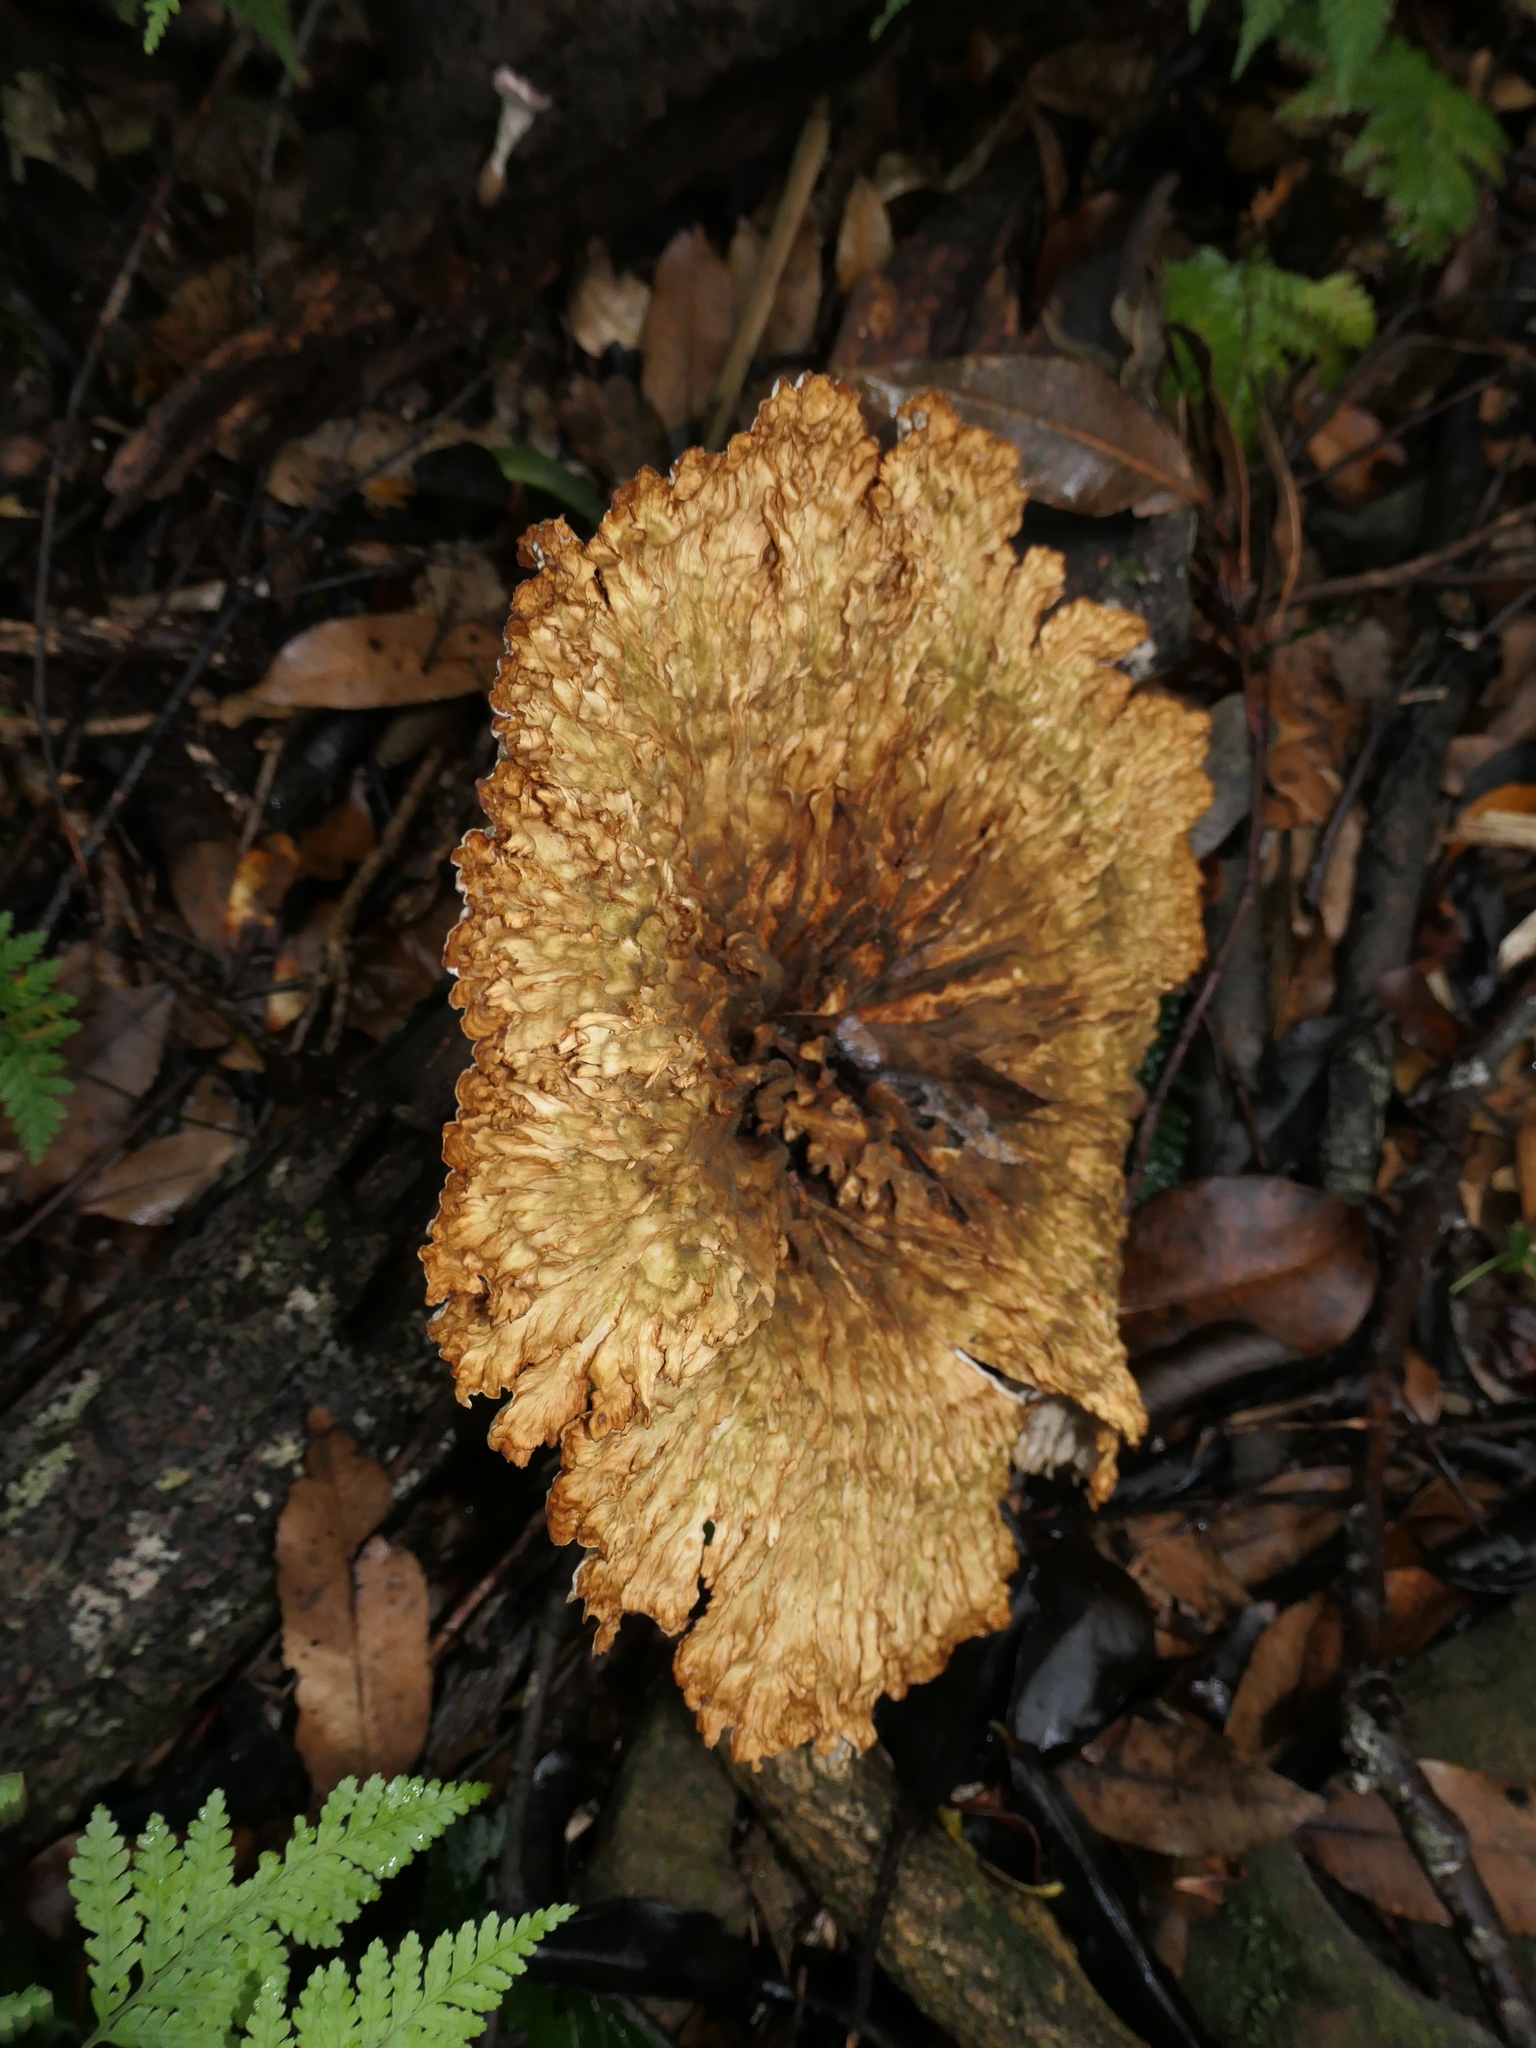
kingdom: Fungi
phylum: Basidiomycota
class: Agaricomycetes
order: Polyporales
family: Panaceae
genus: Cymatoderma
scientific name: Cymatoderma elegans
